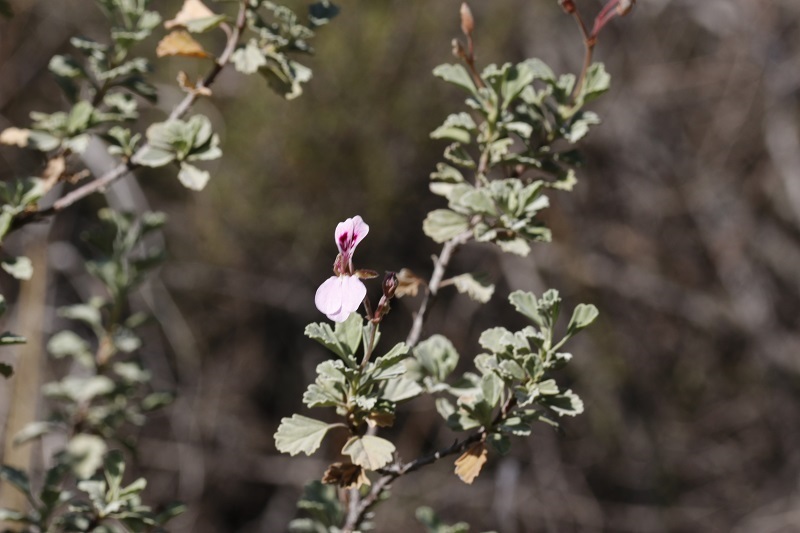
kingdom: Plantae
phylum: Tracheophyta
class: Magnoliopsida
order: Geraniales
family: Geraniaceae
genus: Pelargonium
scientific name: Pelargonium exstipulatum
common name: Soft-leaf trifid pelargonium
